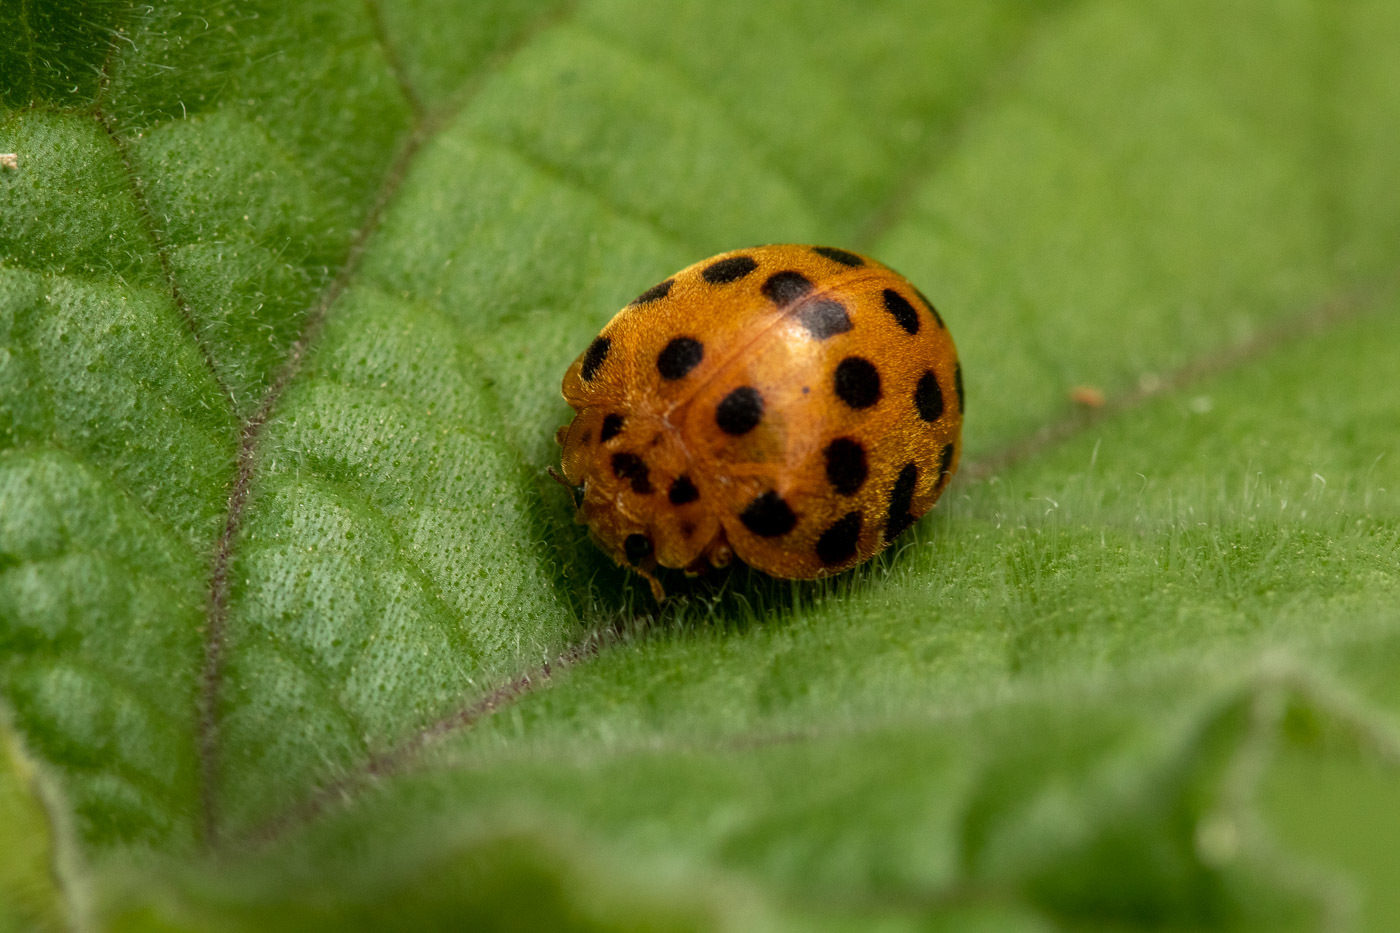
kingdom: Animalia
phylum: Arthropoda
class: Insecta
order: Coleoptera
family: Coccinellidae
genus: Henosepilachna
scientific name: Henosepilachna vigintioctopunctata
